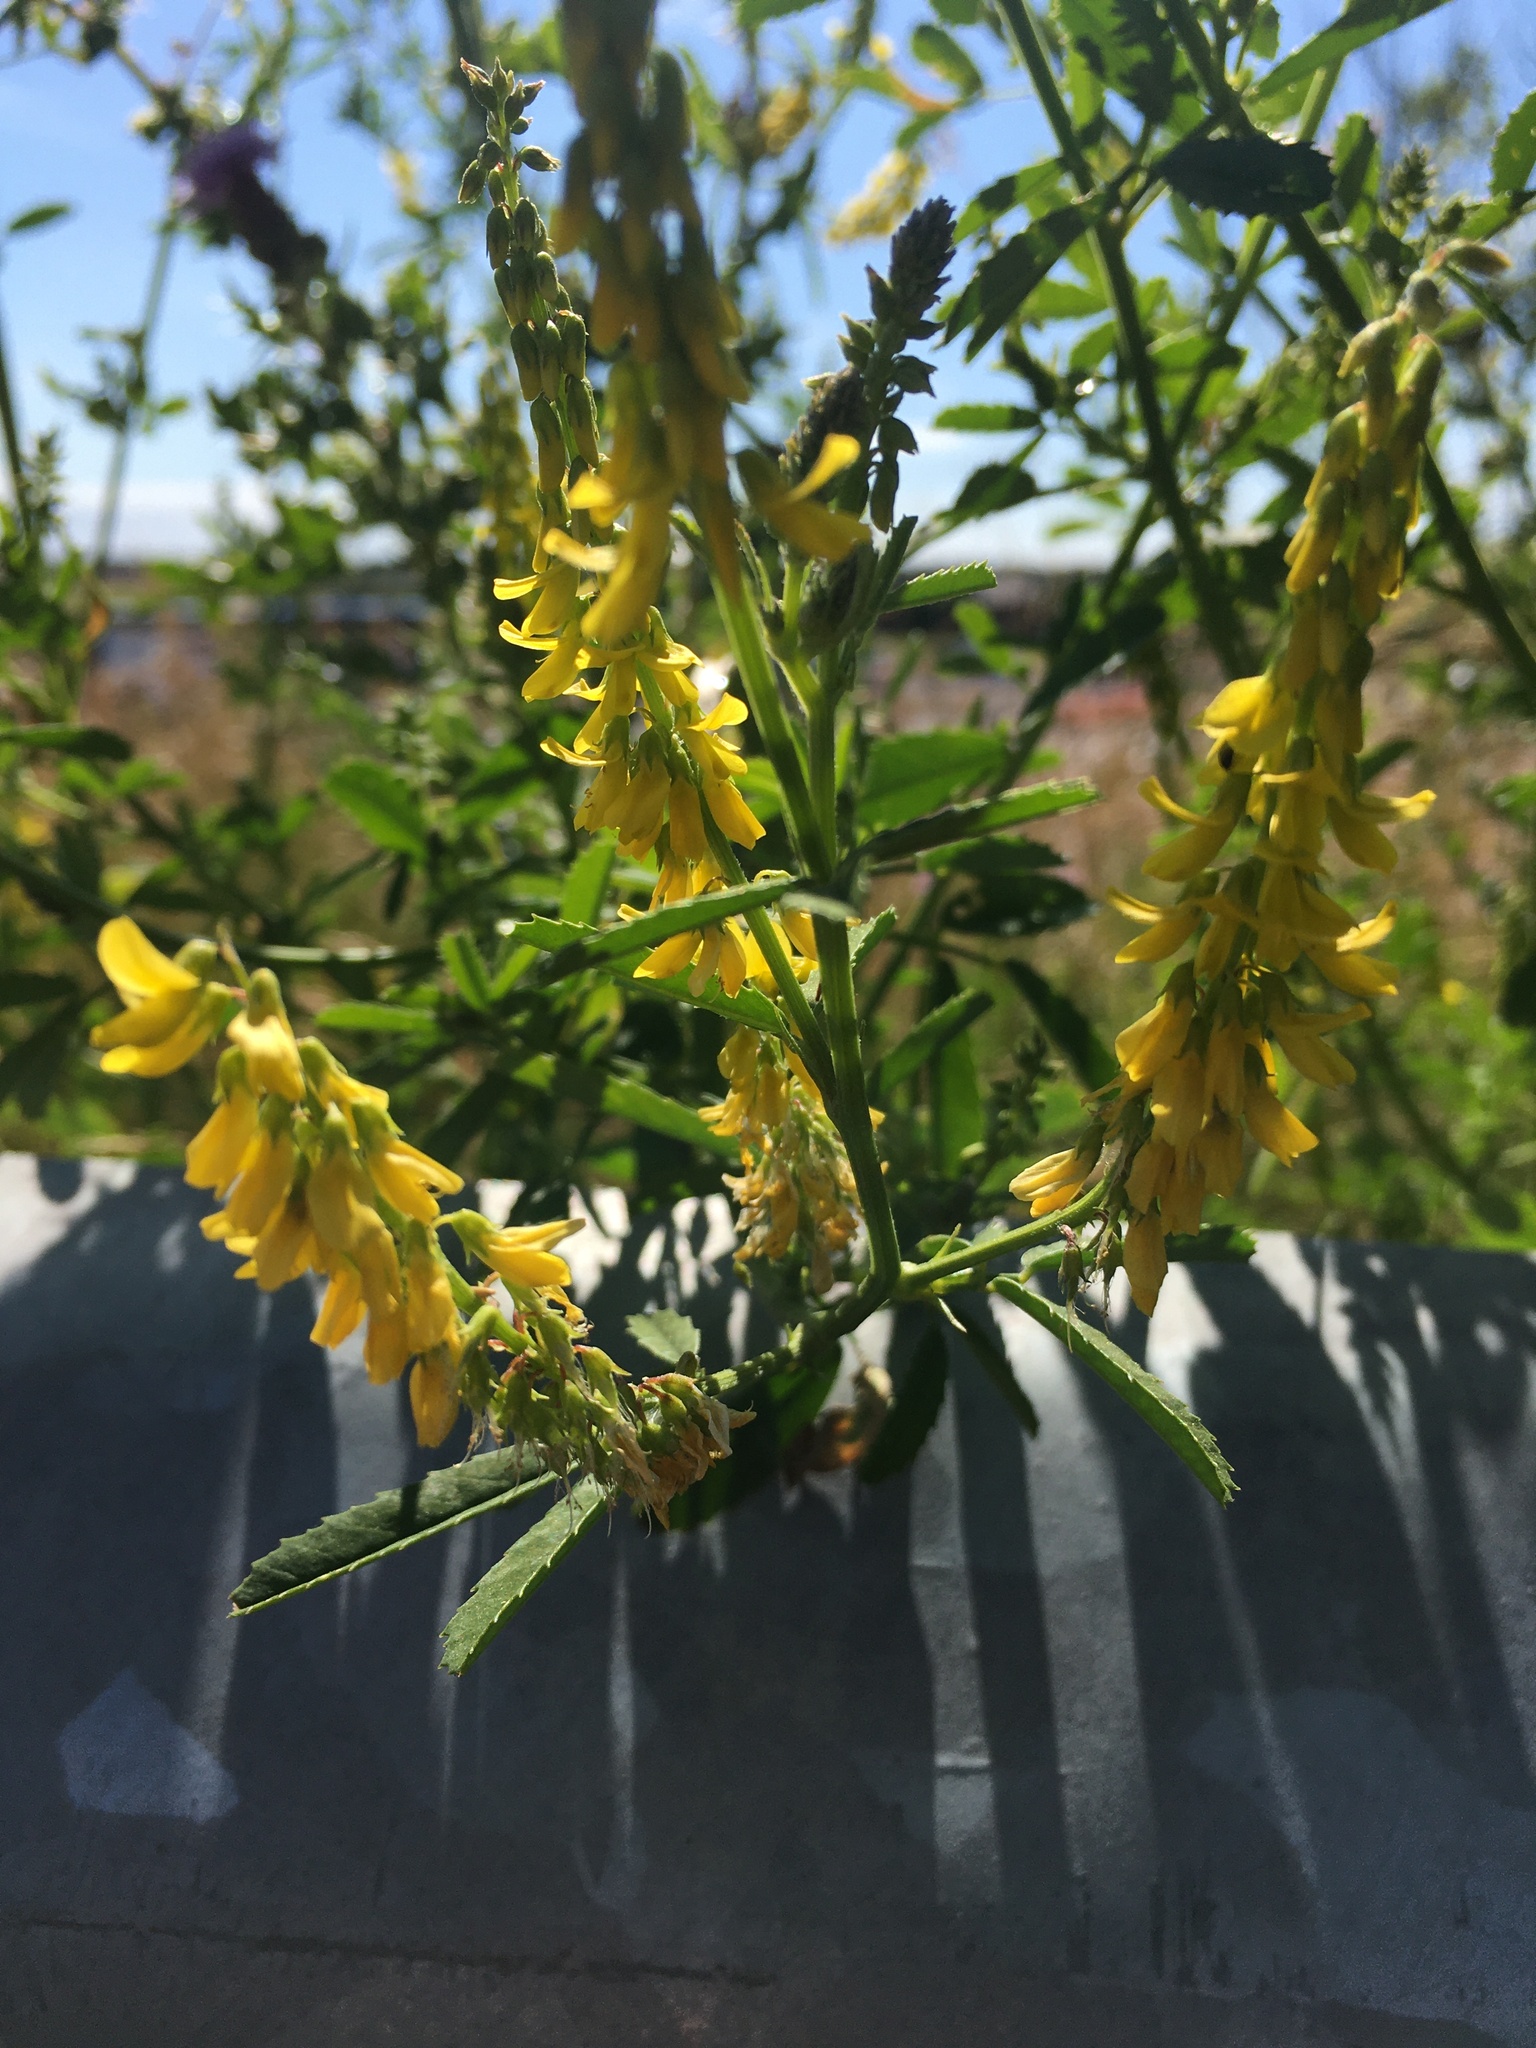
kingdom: Plantae
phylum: Tracheophyta
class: Magnoliopsida
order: Fabales
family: Fabaceae
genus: Melilotus
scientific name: Melilotus altissimus
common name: Tall melilot
